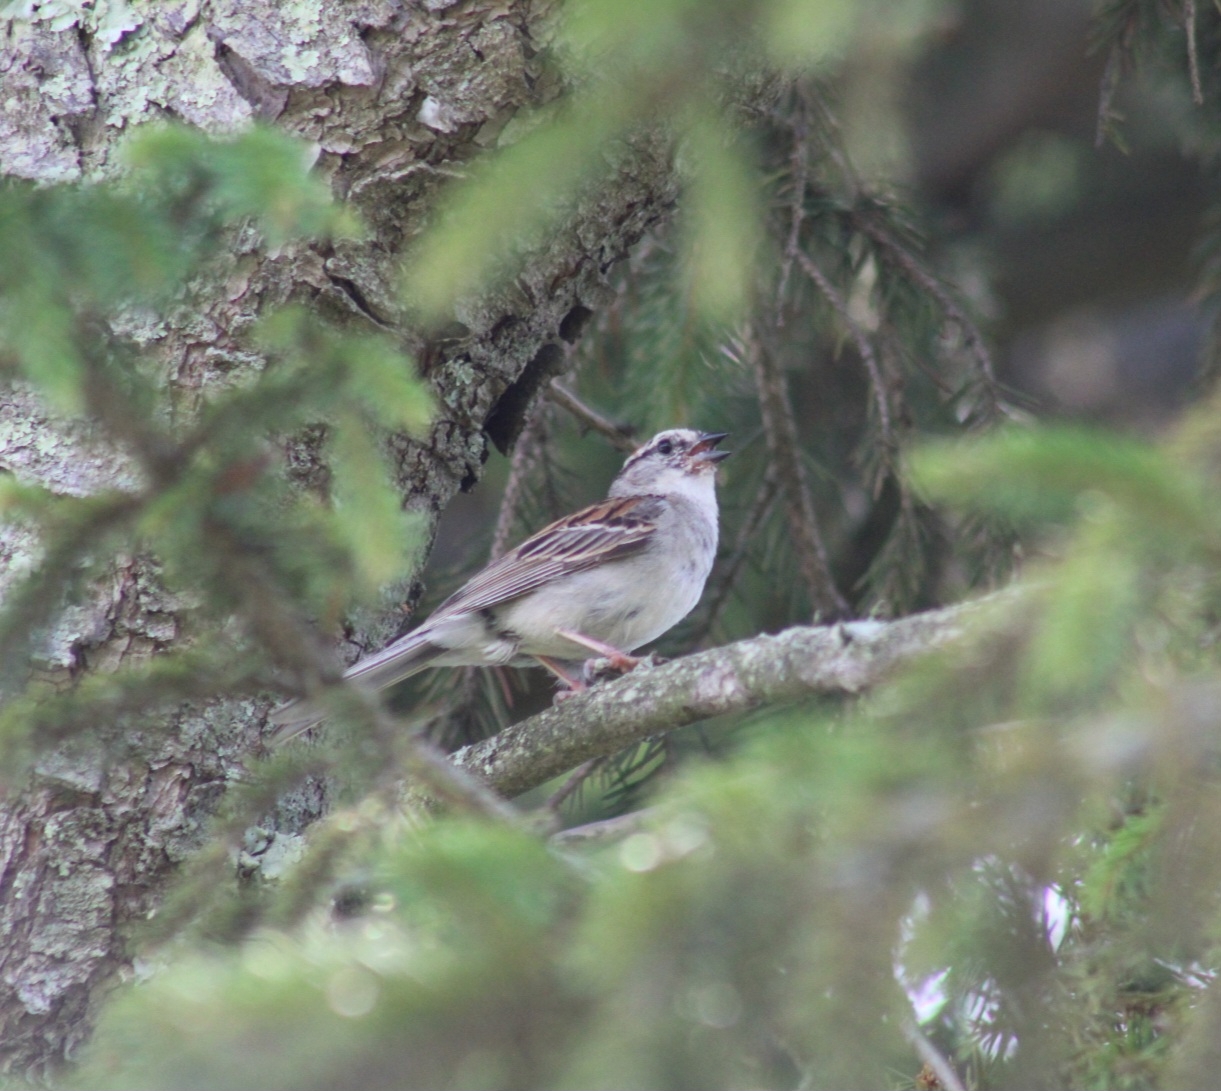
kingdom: Animalia
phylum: Chordata
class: Aves
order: Passeriformes
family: Passerellidae
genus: Spizella
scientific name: Spizella passerina
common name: Chipping sparrow
